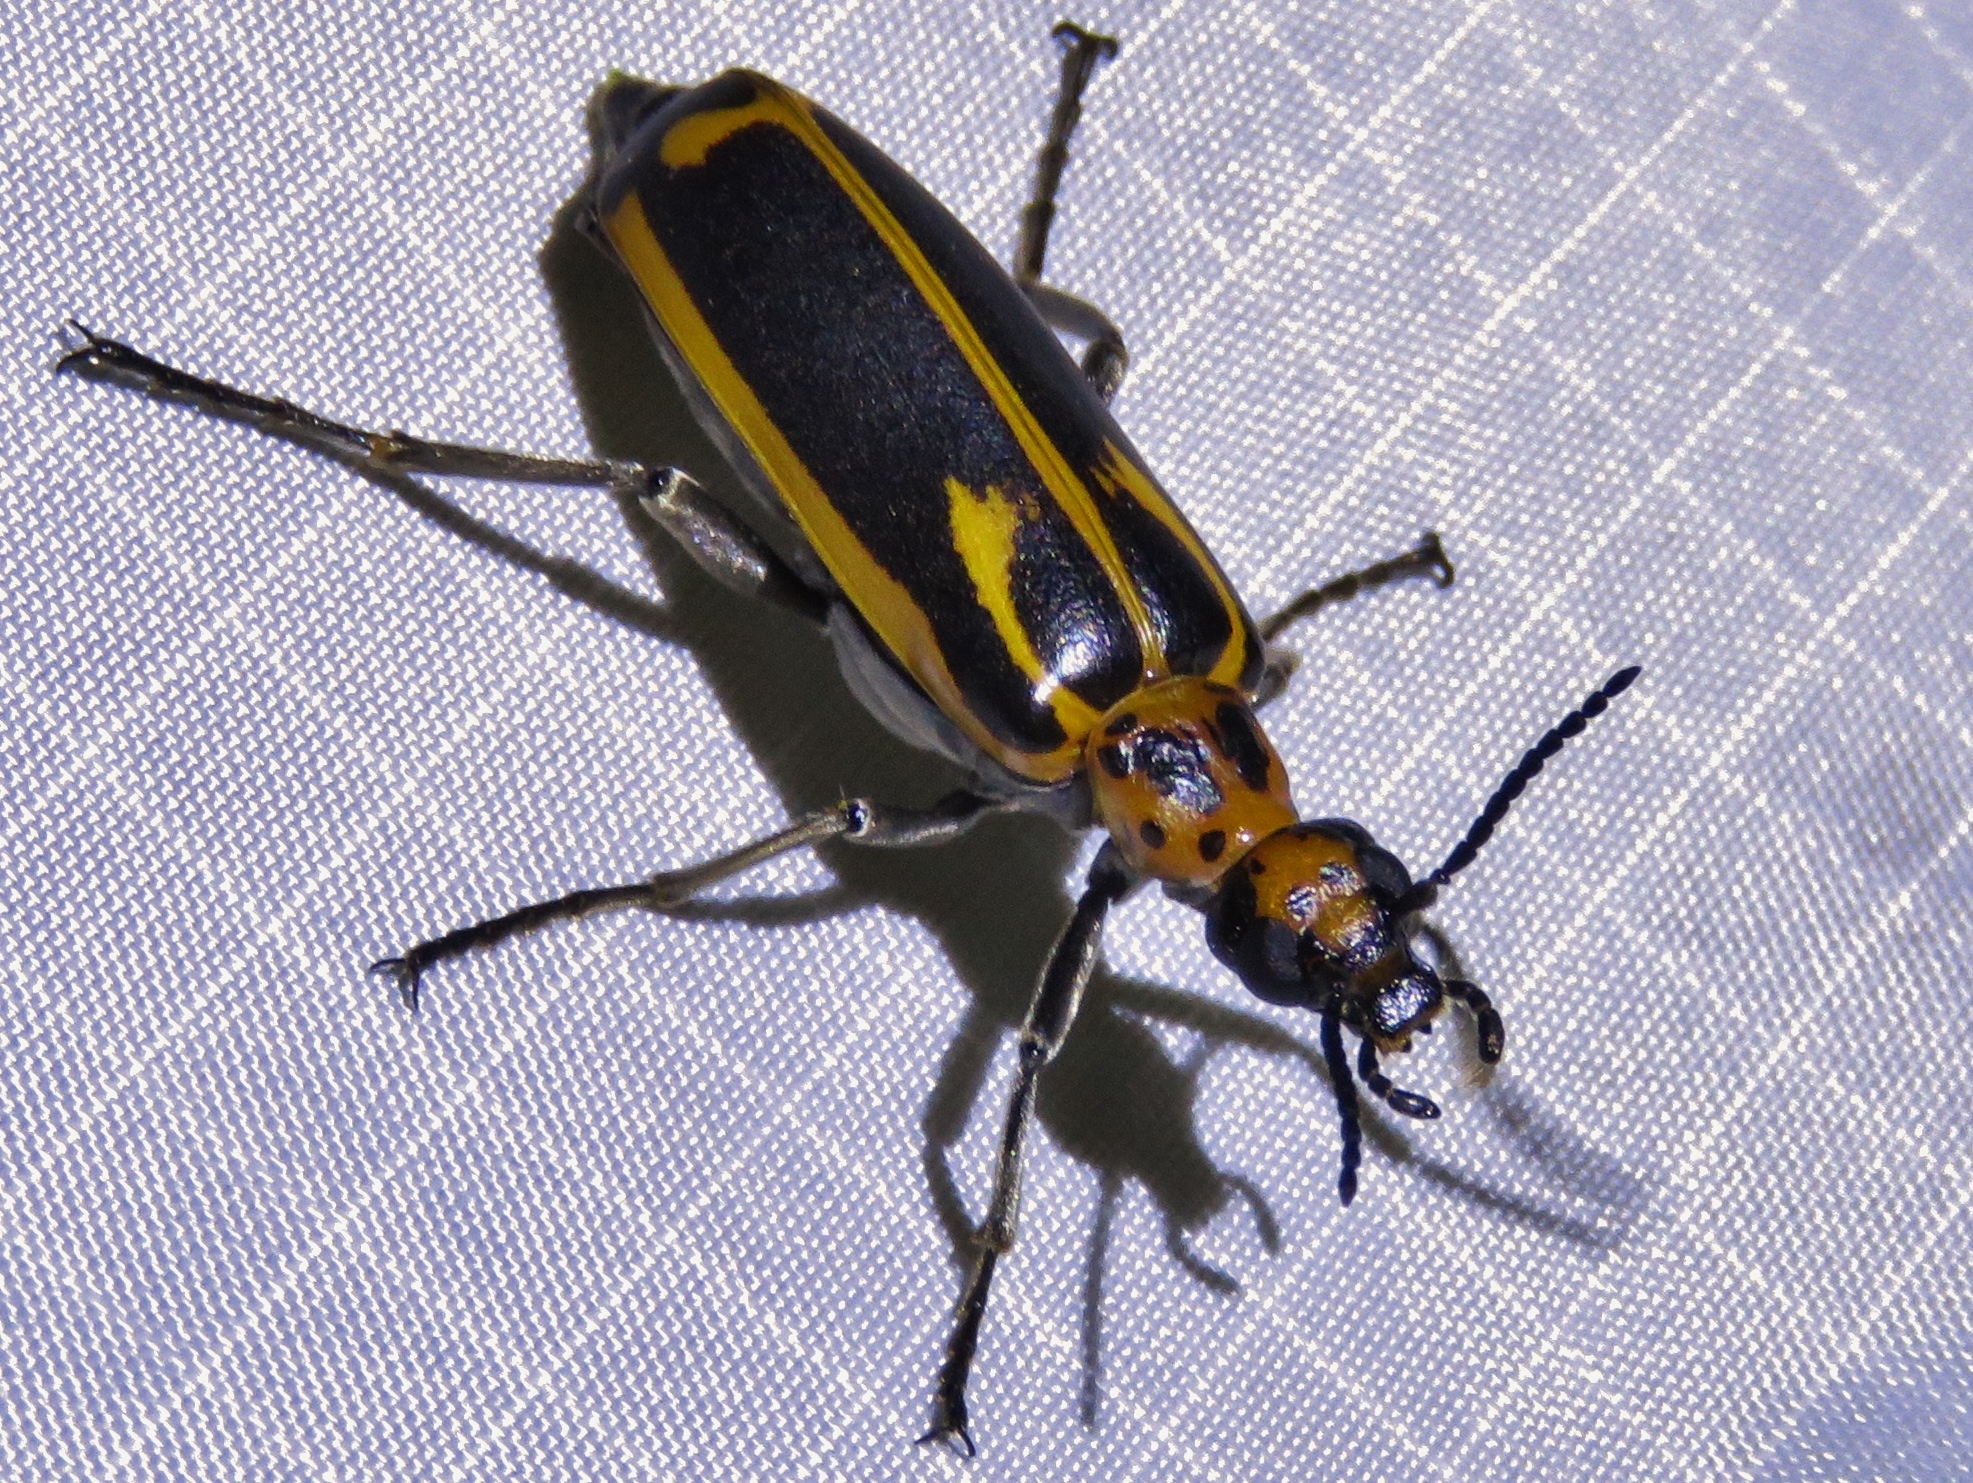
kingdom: Animalia
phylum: Arthropoda
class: Insecta
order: Coleoptera
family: Meloidae
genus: Pyrota
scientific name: Pyrota insulata
